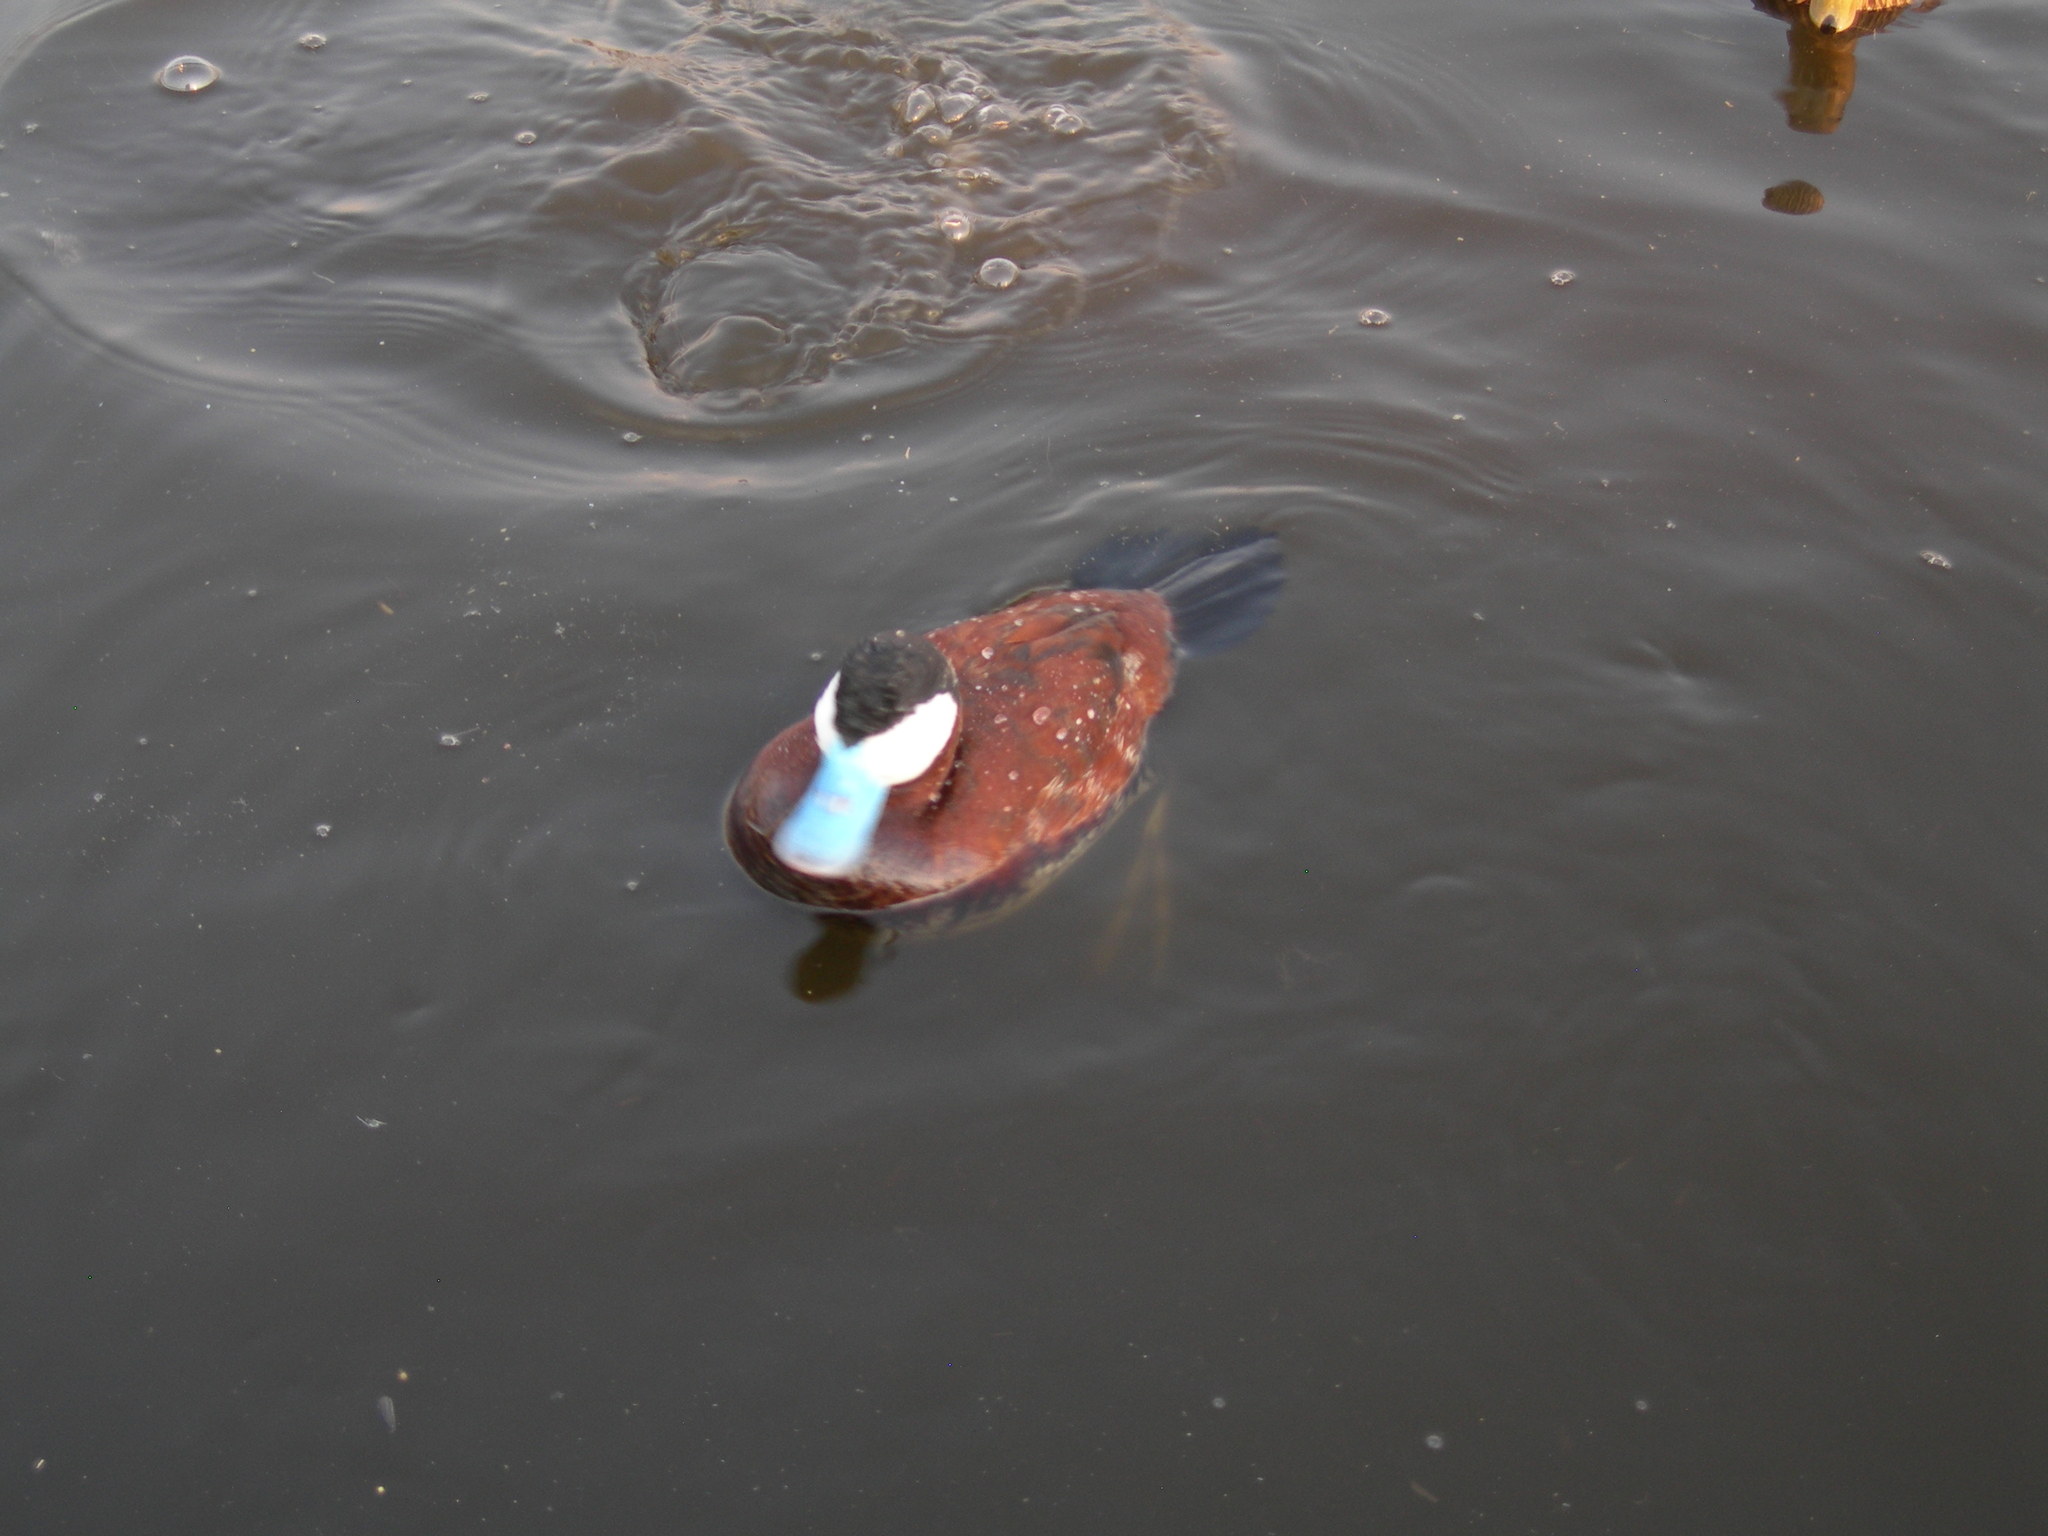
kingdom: Animalia
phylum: Chordata
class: Aves
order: Anseriformes
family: Anatidae
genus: Oxyura
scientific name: Oxyura jamaicensis
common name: Ruddy duck
